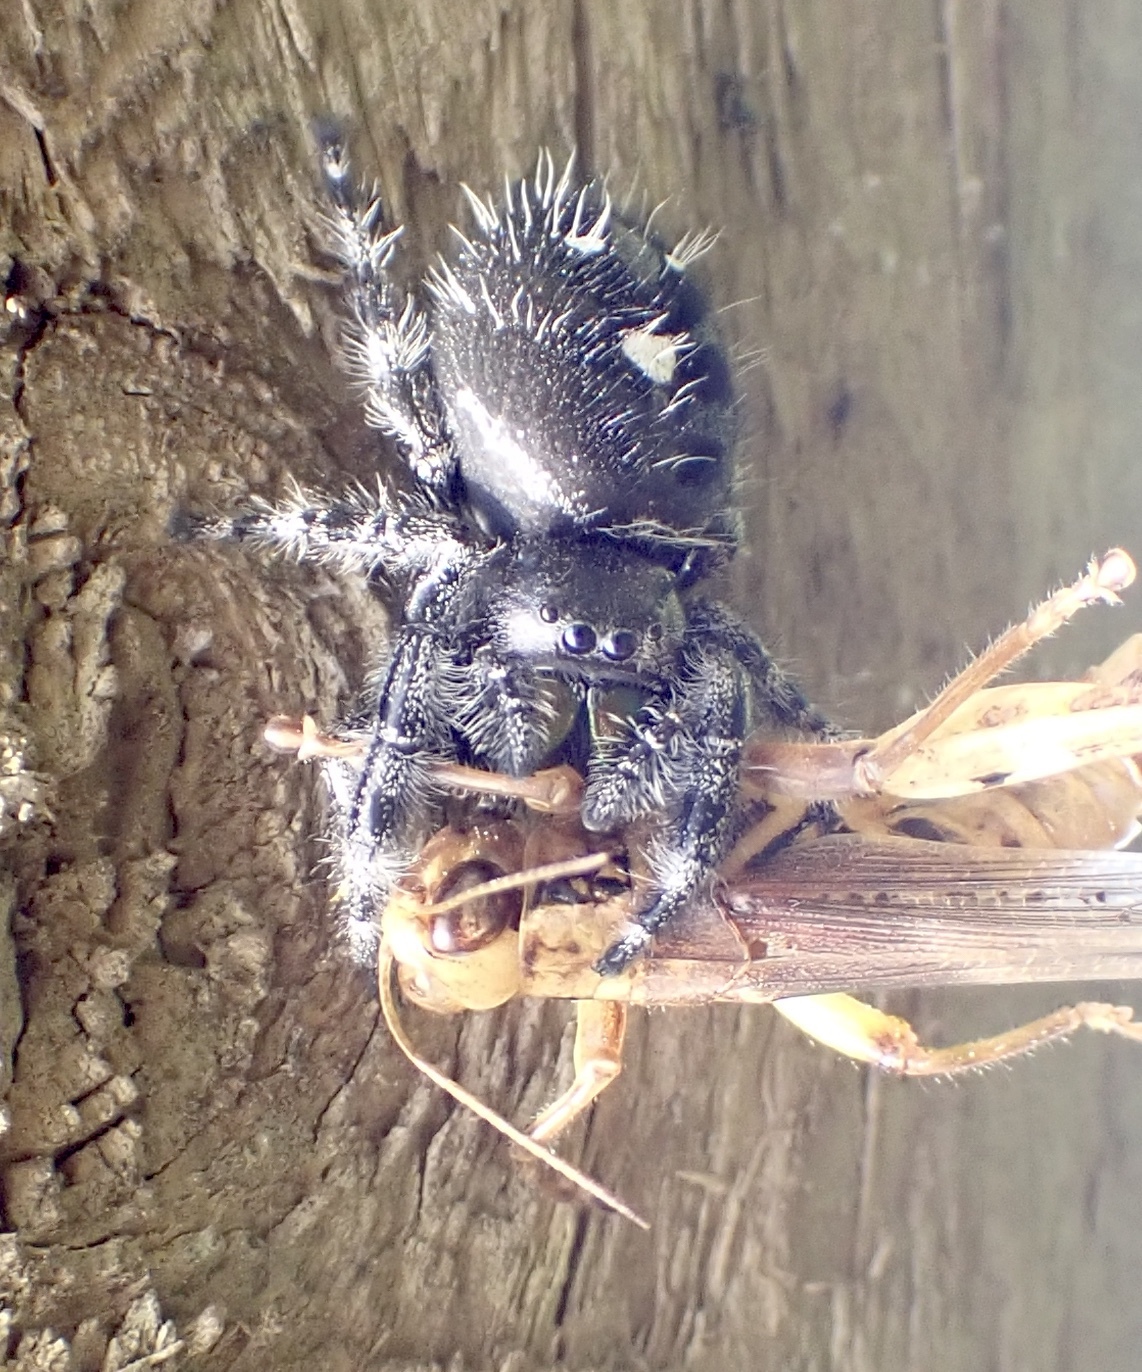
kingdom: Animalia
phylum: Arthropoda
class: Arachnida
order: Araneae
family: Salticidae
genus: Phidippus
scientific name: Phidippus audax
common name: Bold jumper
